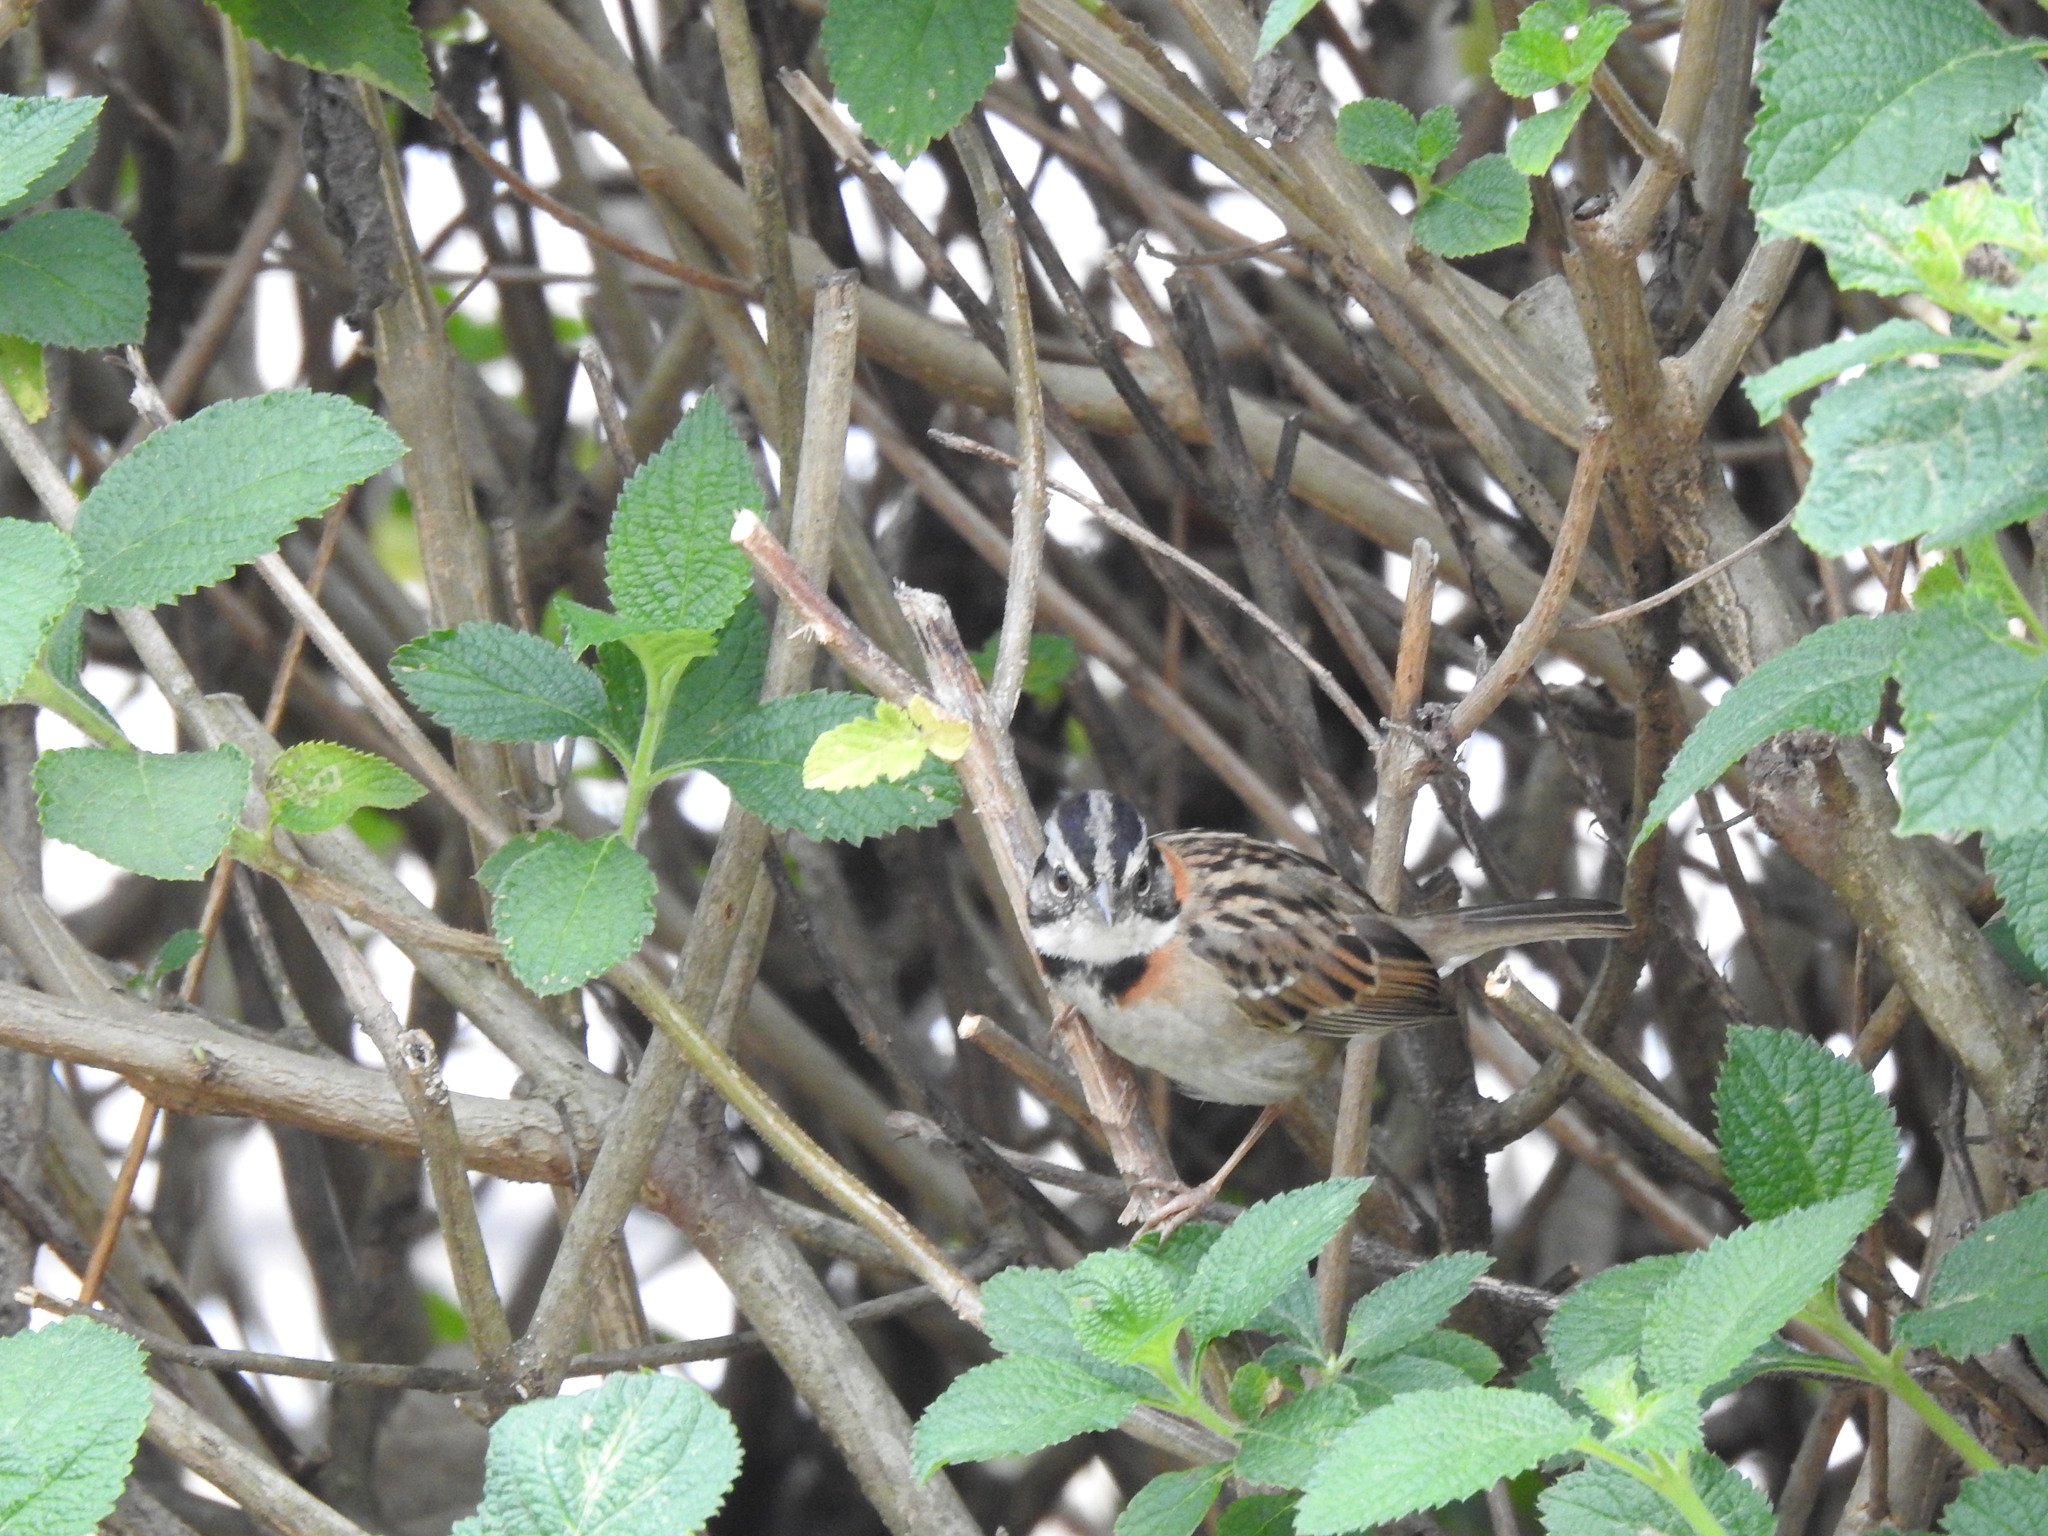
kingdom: Animalia
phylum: Chordata
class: Aves
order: Passeriformes
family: Passerellidae
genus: Zonotrichia
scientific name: Zonotrichia capensis
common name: Rufous-collared sparrow
